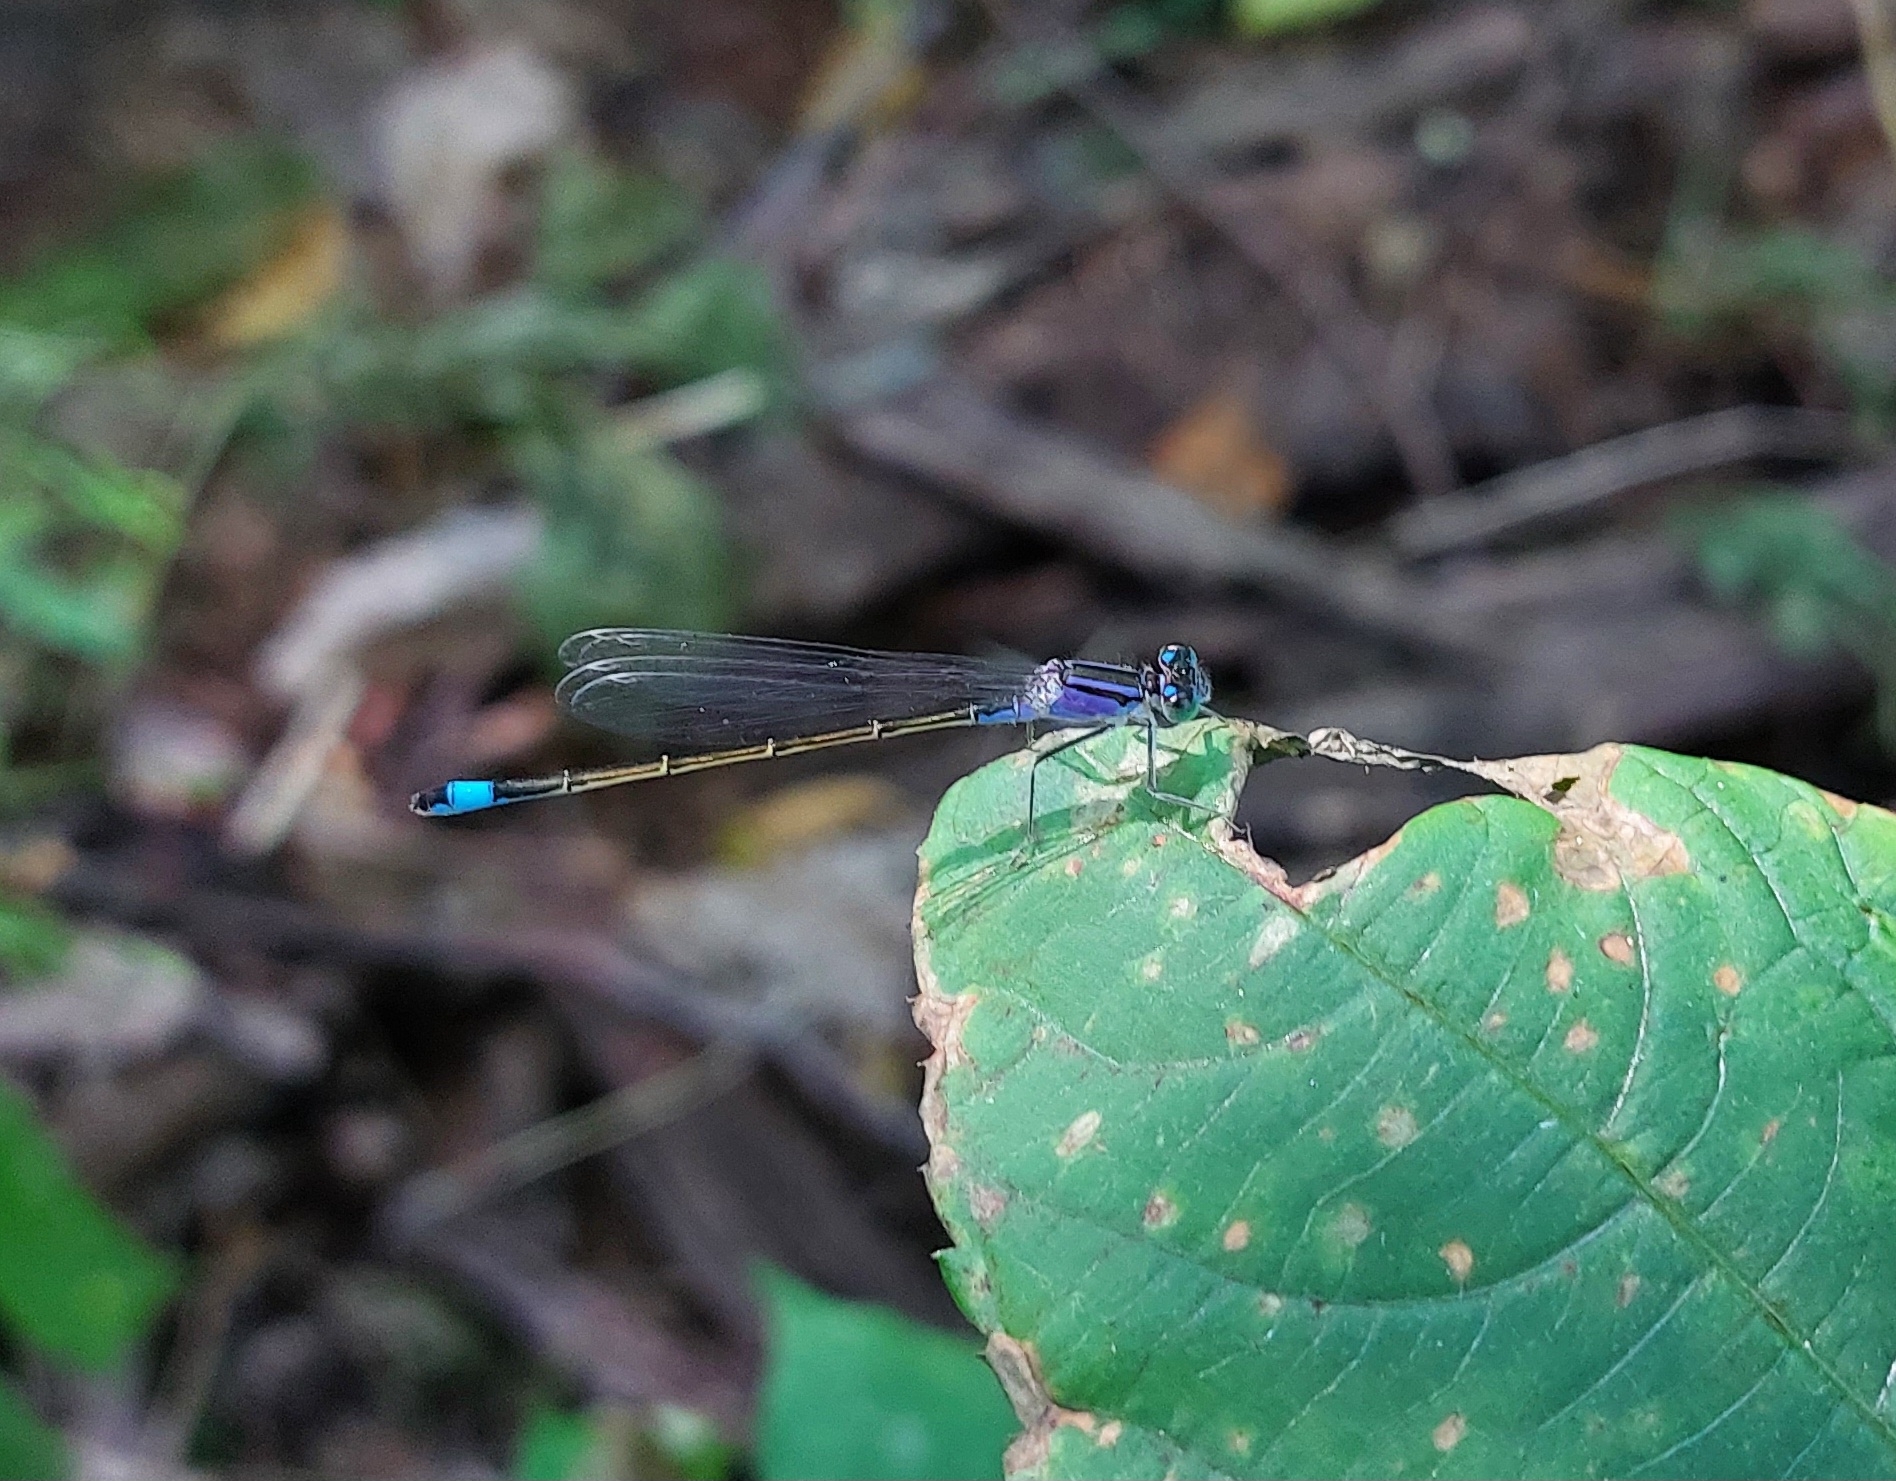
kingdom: Animalia
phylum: Arthropoda
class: Insecta
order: Odonata
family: Coenagrionidae
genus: Ischnura
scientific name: Ischnura elegans
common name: Blue-tailed damselfly
